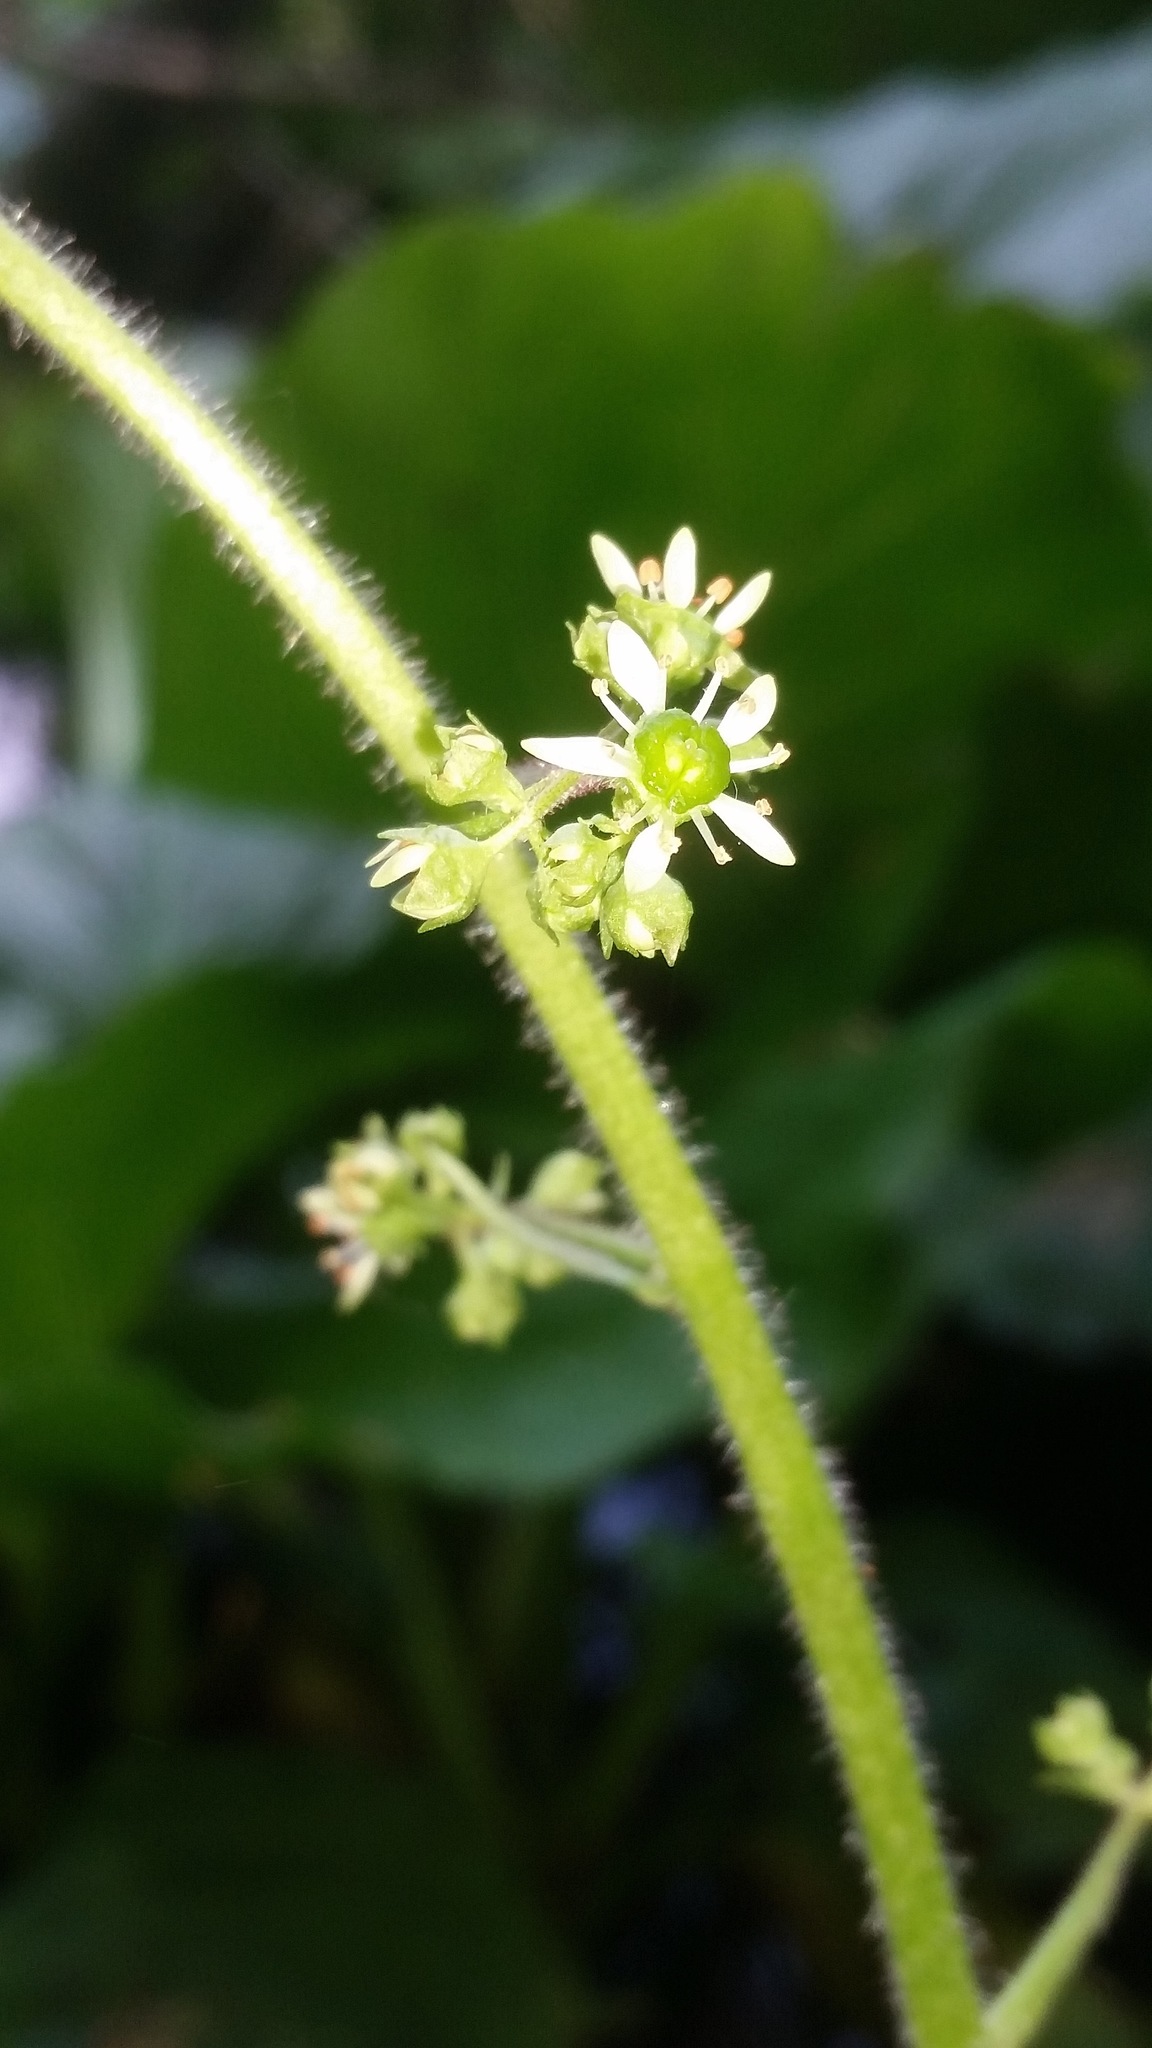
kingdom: Plantae
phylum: Tracheophyta
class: Magnoliopsida
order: Saxifragales
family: Saxifragaceae
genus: Micranthes
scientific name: Micranthes pensylvanica
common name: Marsh saxifrage
